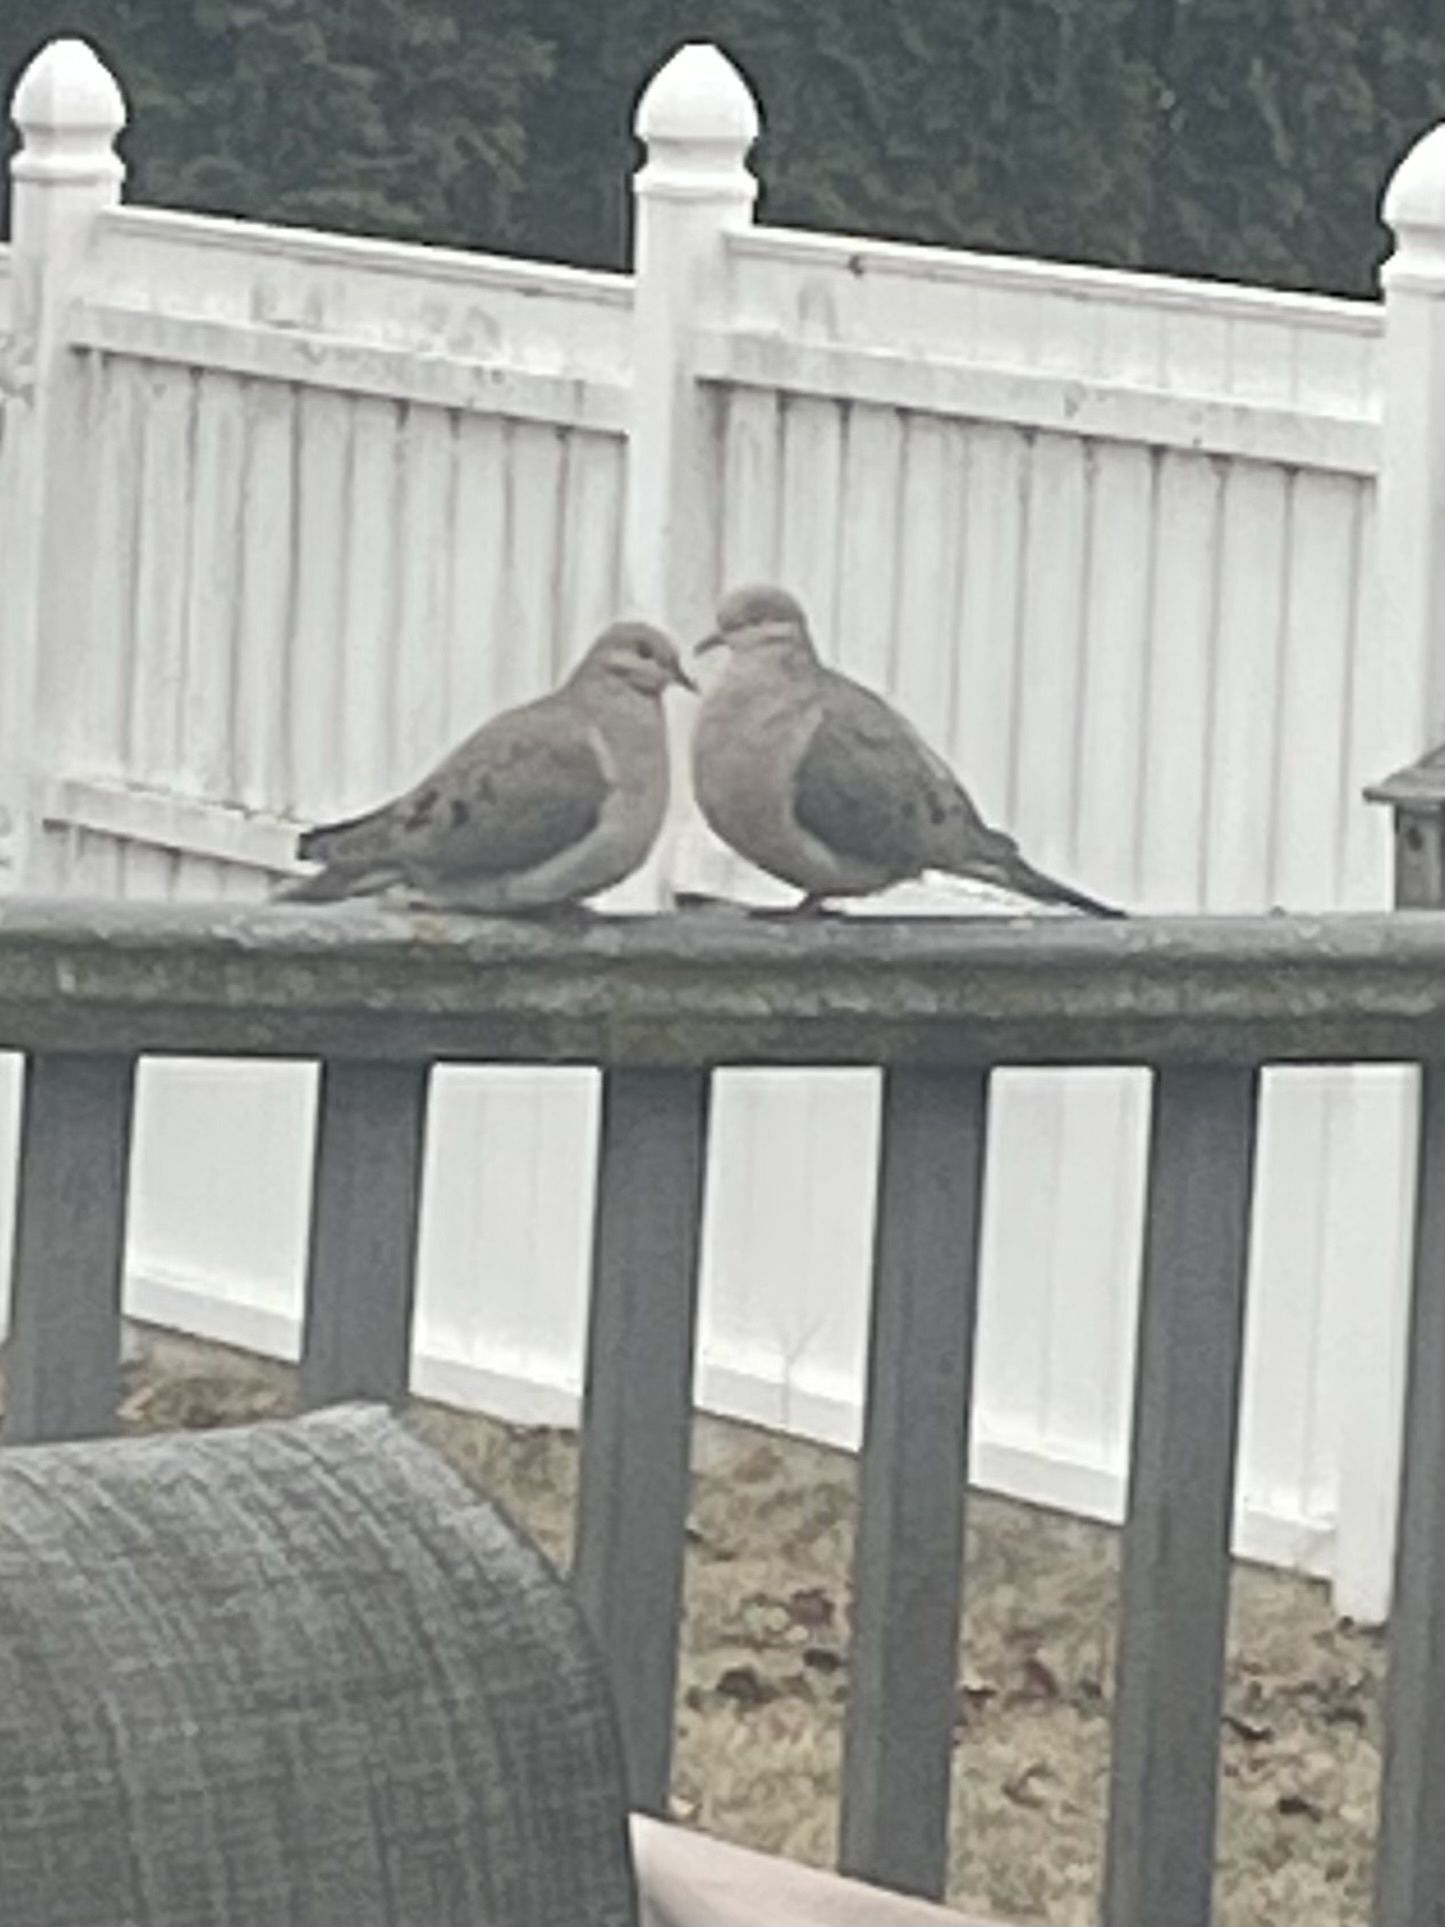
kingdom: Animalia
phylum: Chordata
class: Aves
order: Columbiformes
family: Columbidae
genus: Zenaida
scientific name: Zenaida macroura
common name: Mourning dove
